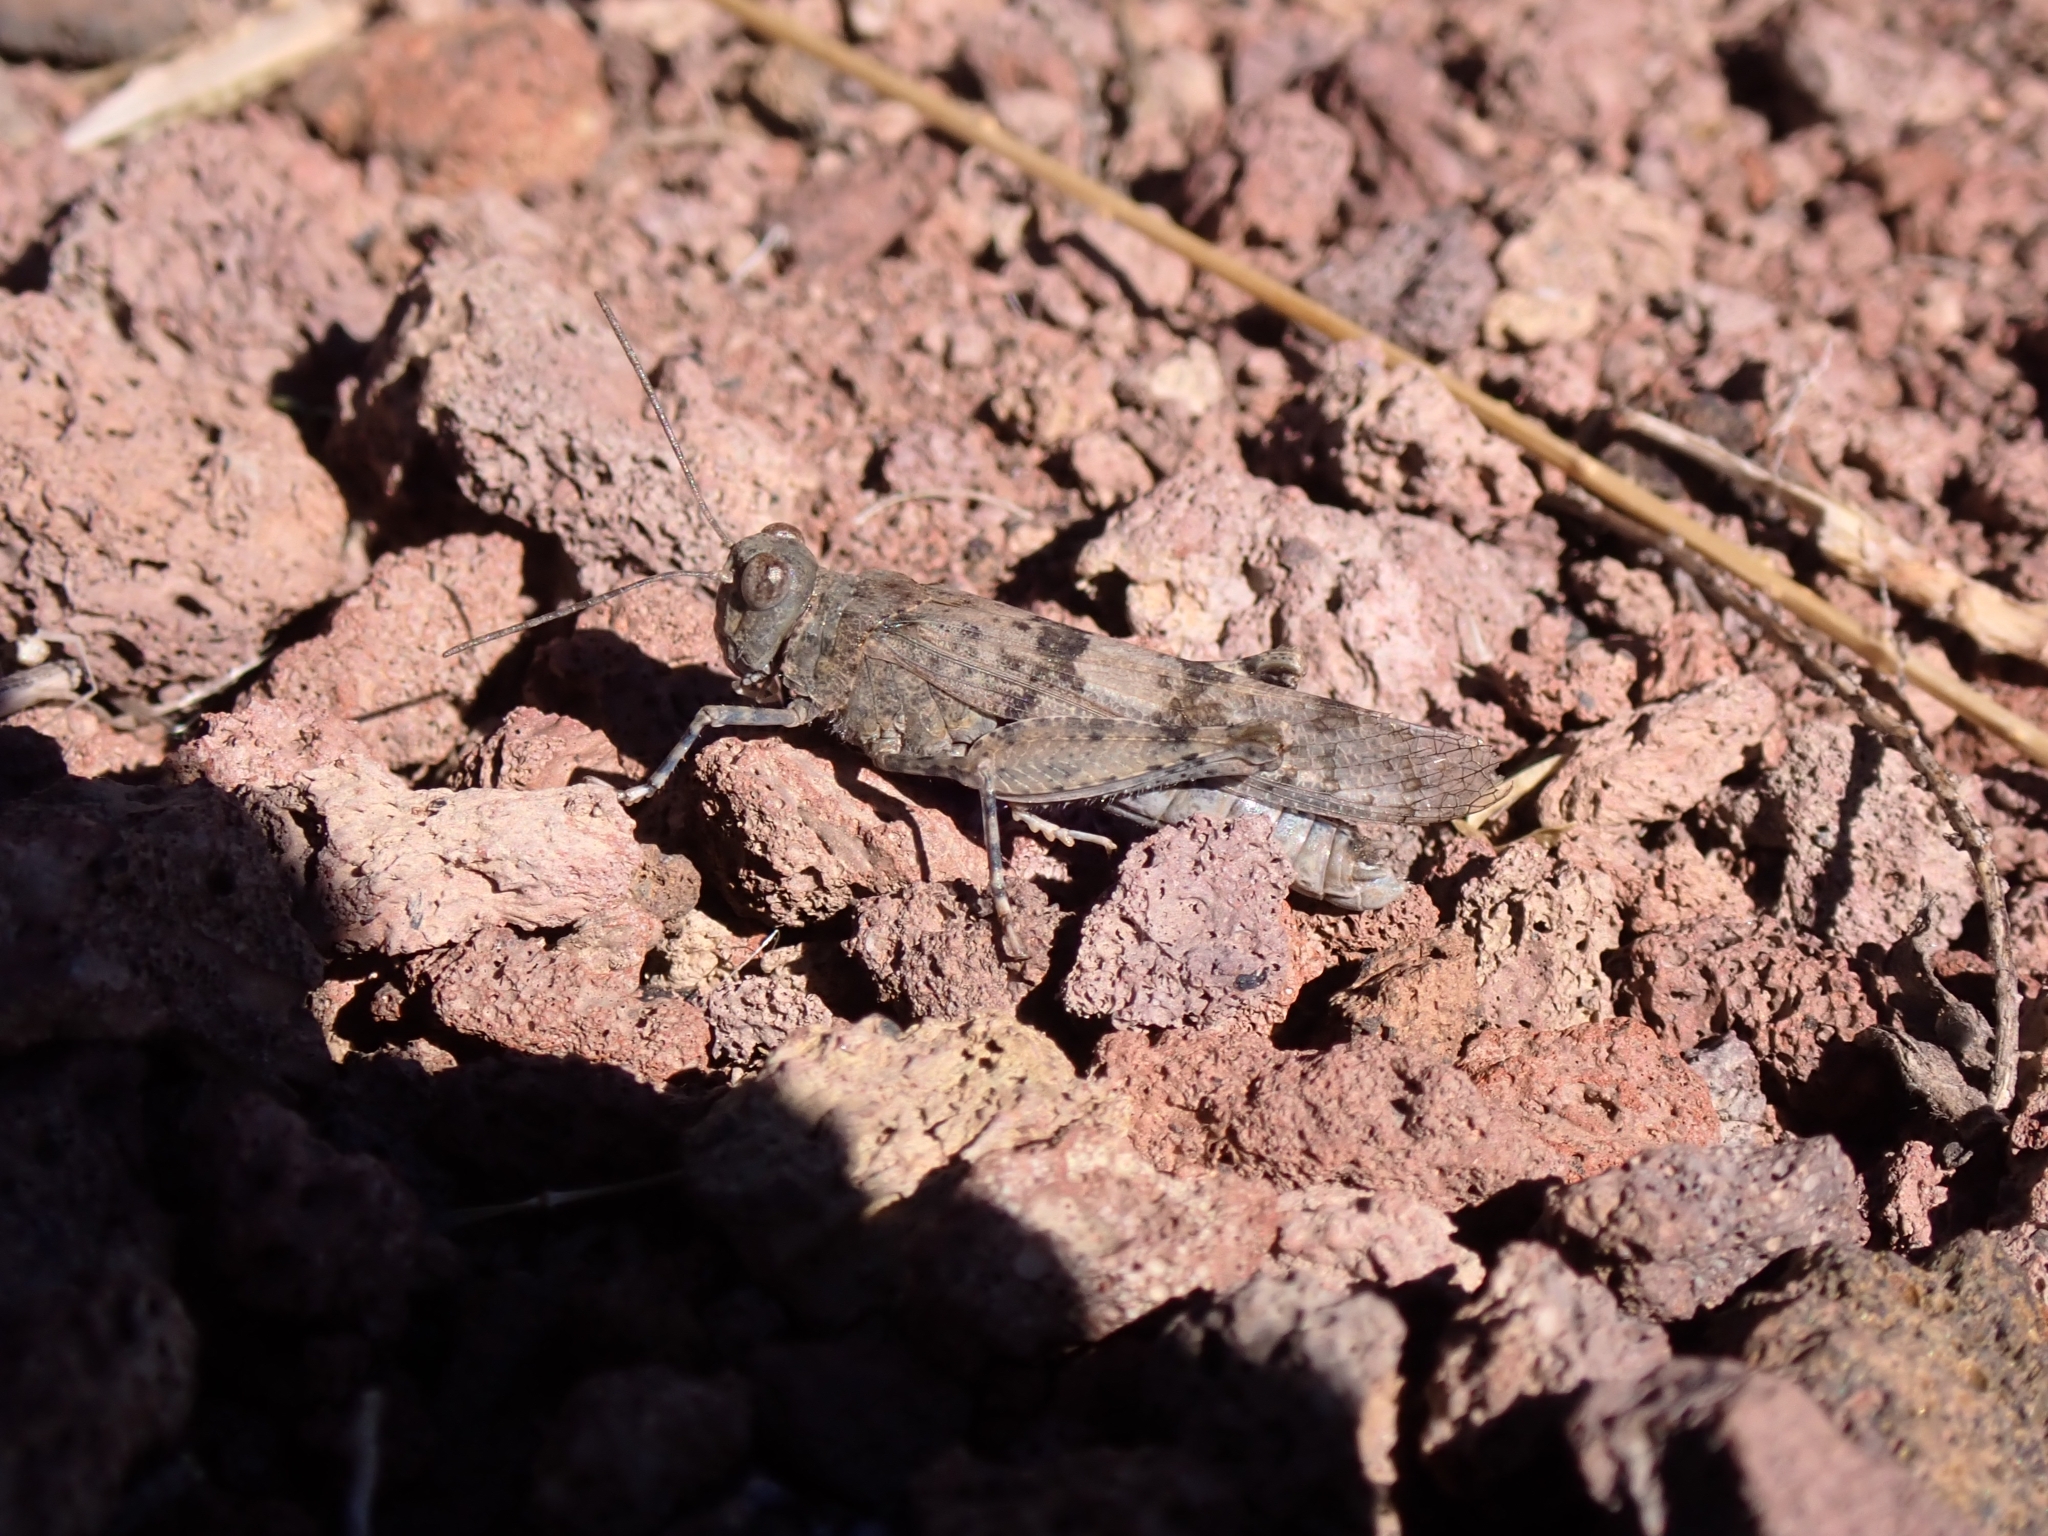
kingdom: Animalia
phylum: Arthropoda
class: Insecta
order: Orthoptera
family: Acrididae
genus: Sphingonotus
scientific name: Sphingonotus rubescens
